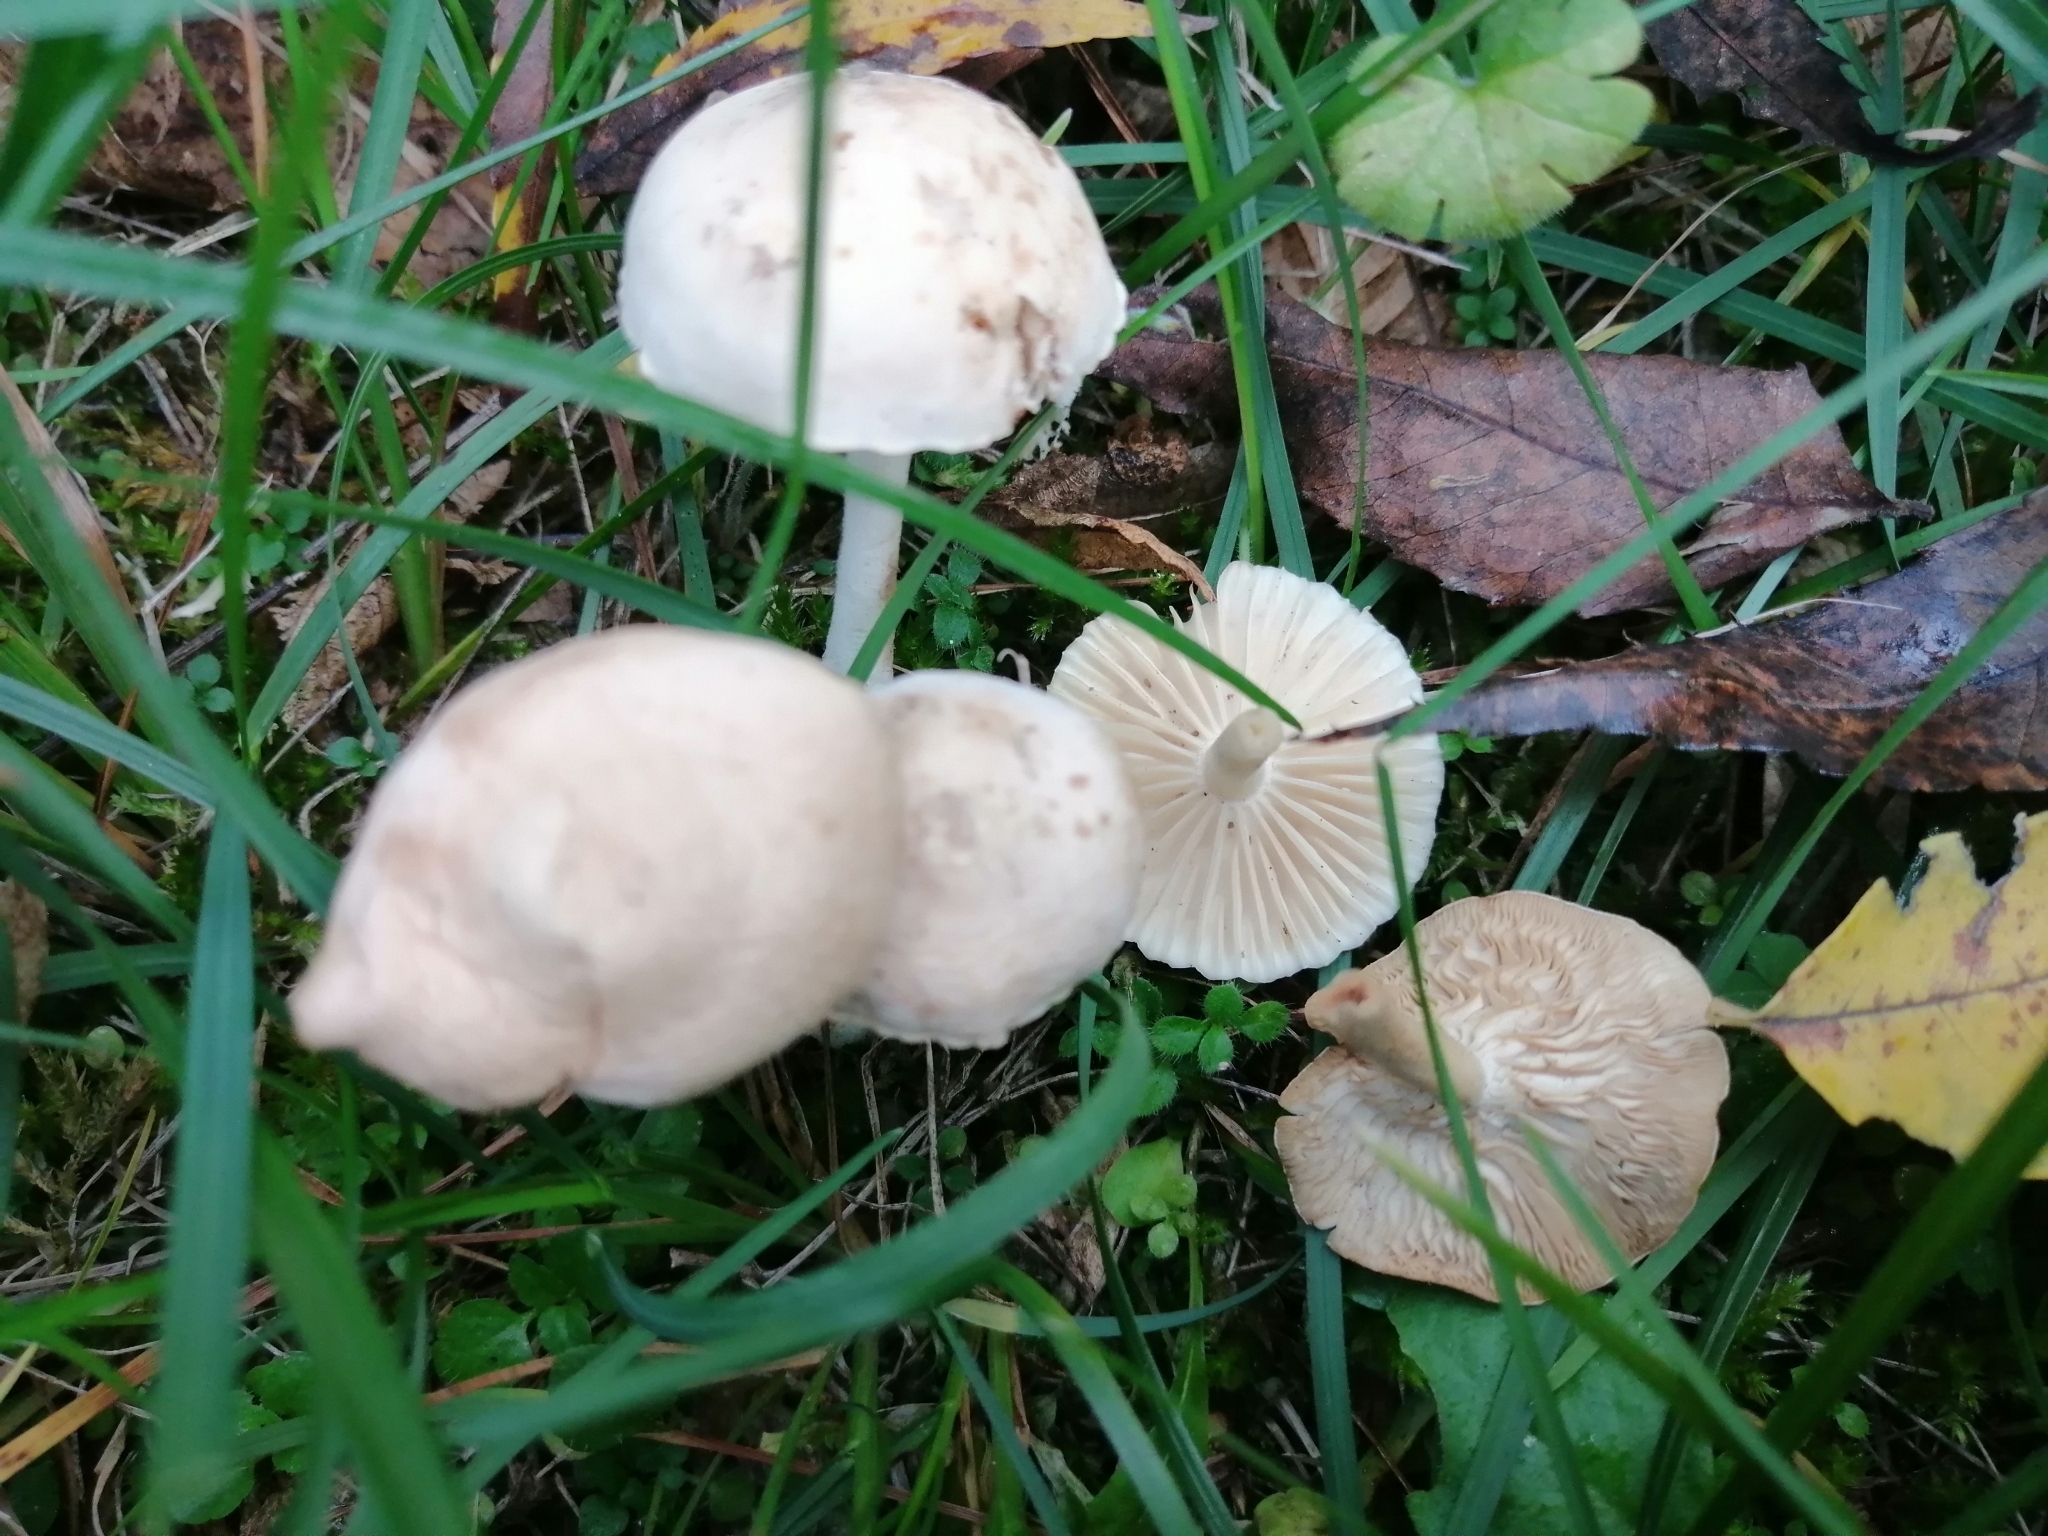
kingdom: Fungi
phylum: Basidiomycota
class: Agaricomycetes
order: Agaricales
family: Marasmiaceae
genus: Marasmius
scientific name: Marasmius collinus
